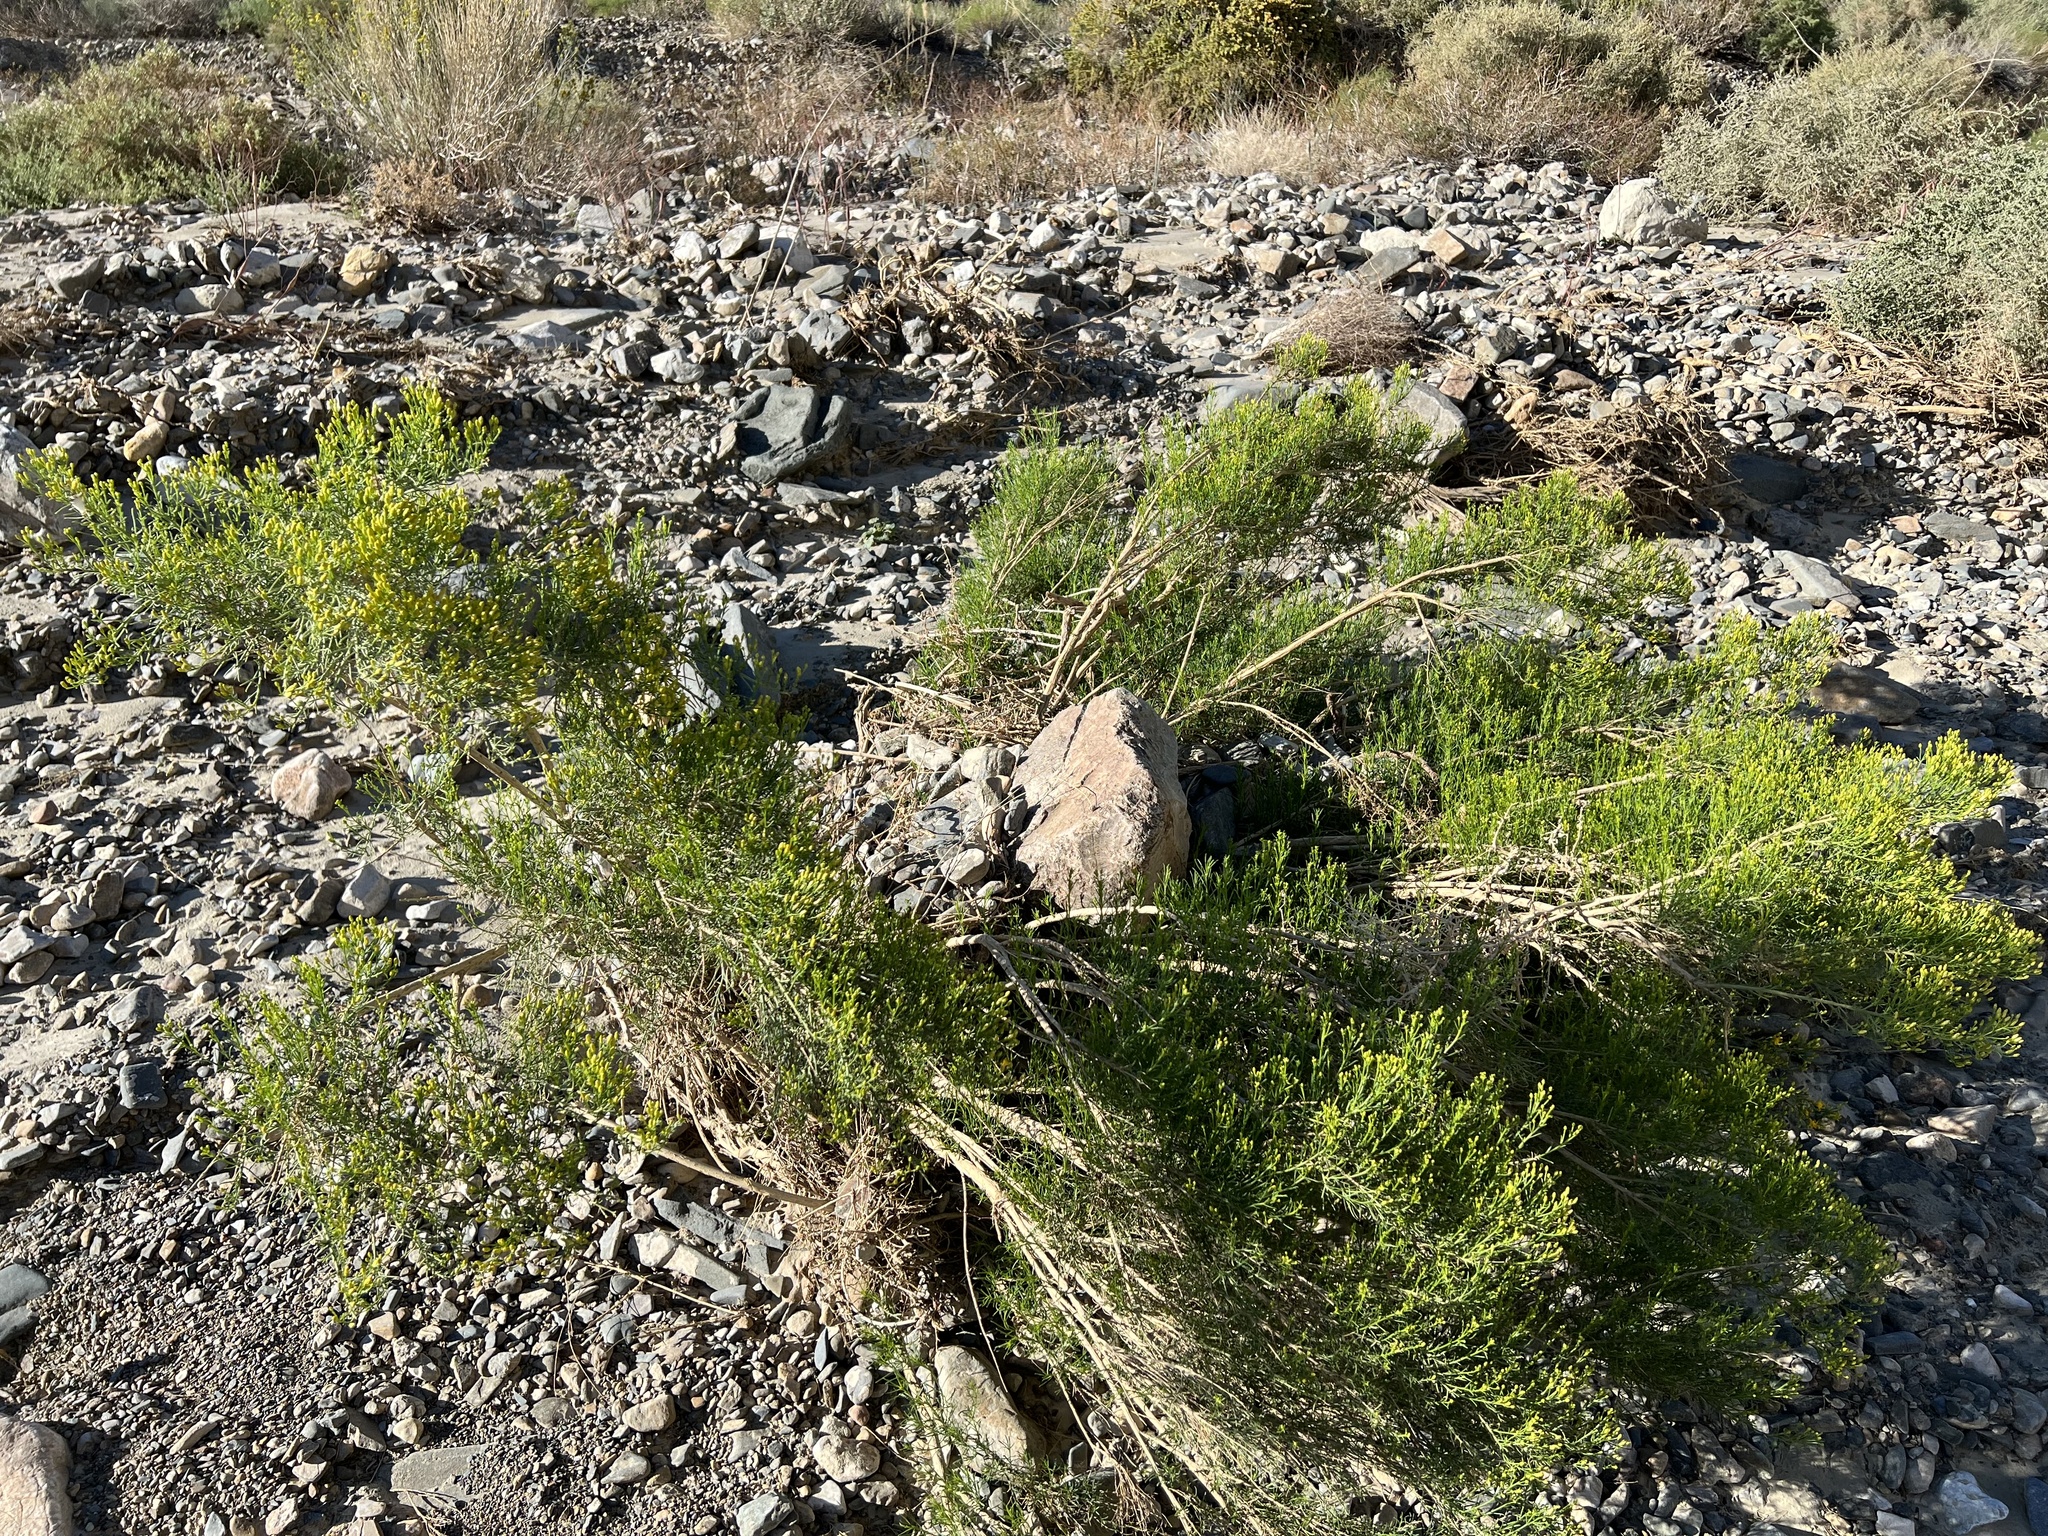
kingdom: Plantae
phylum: Tracheophyta
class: Magnoliopsida
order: Asterales
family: Asteraceae
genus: Ericameria
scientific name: Ericameria paniculata
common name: Punctate rabbitbrush
